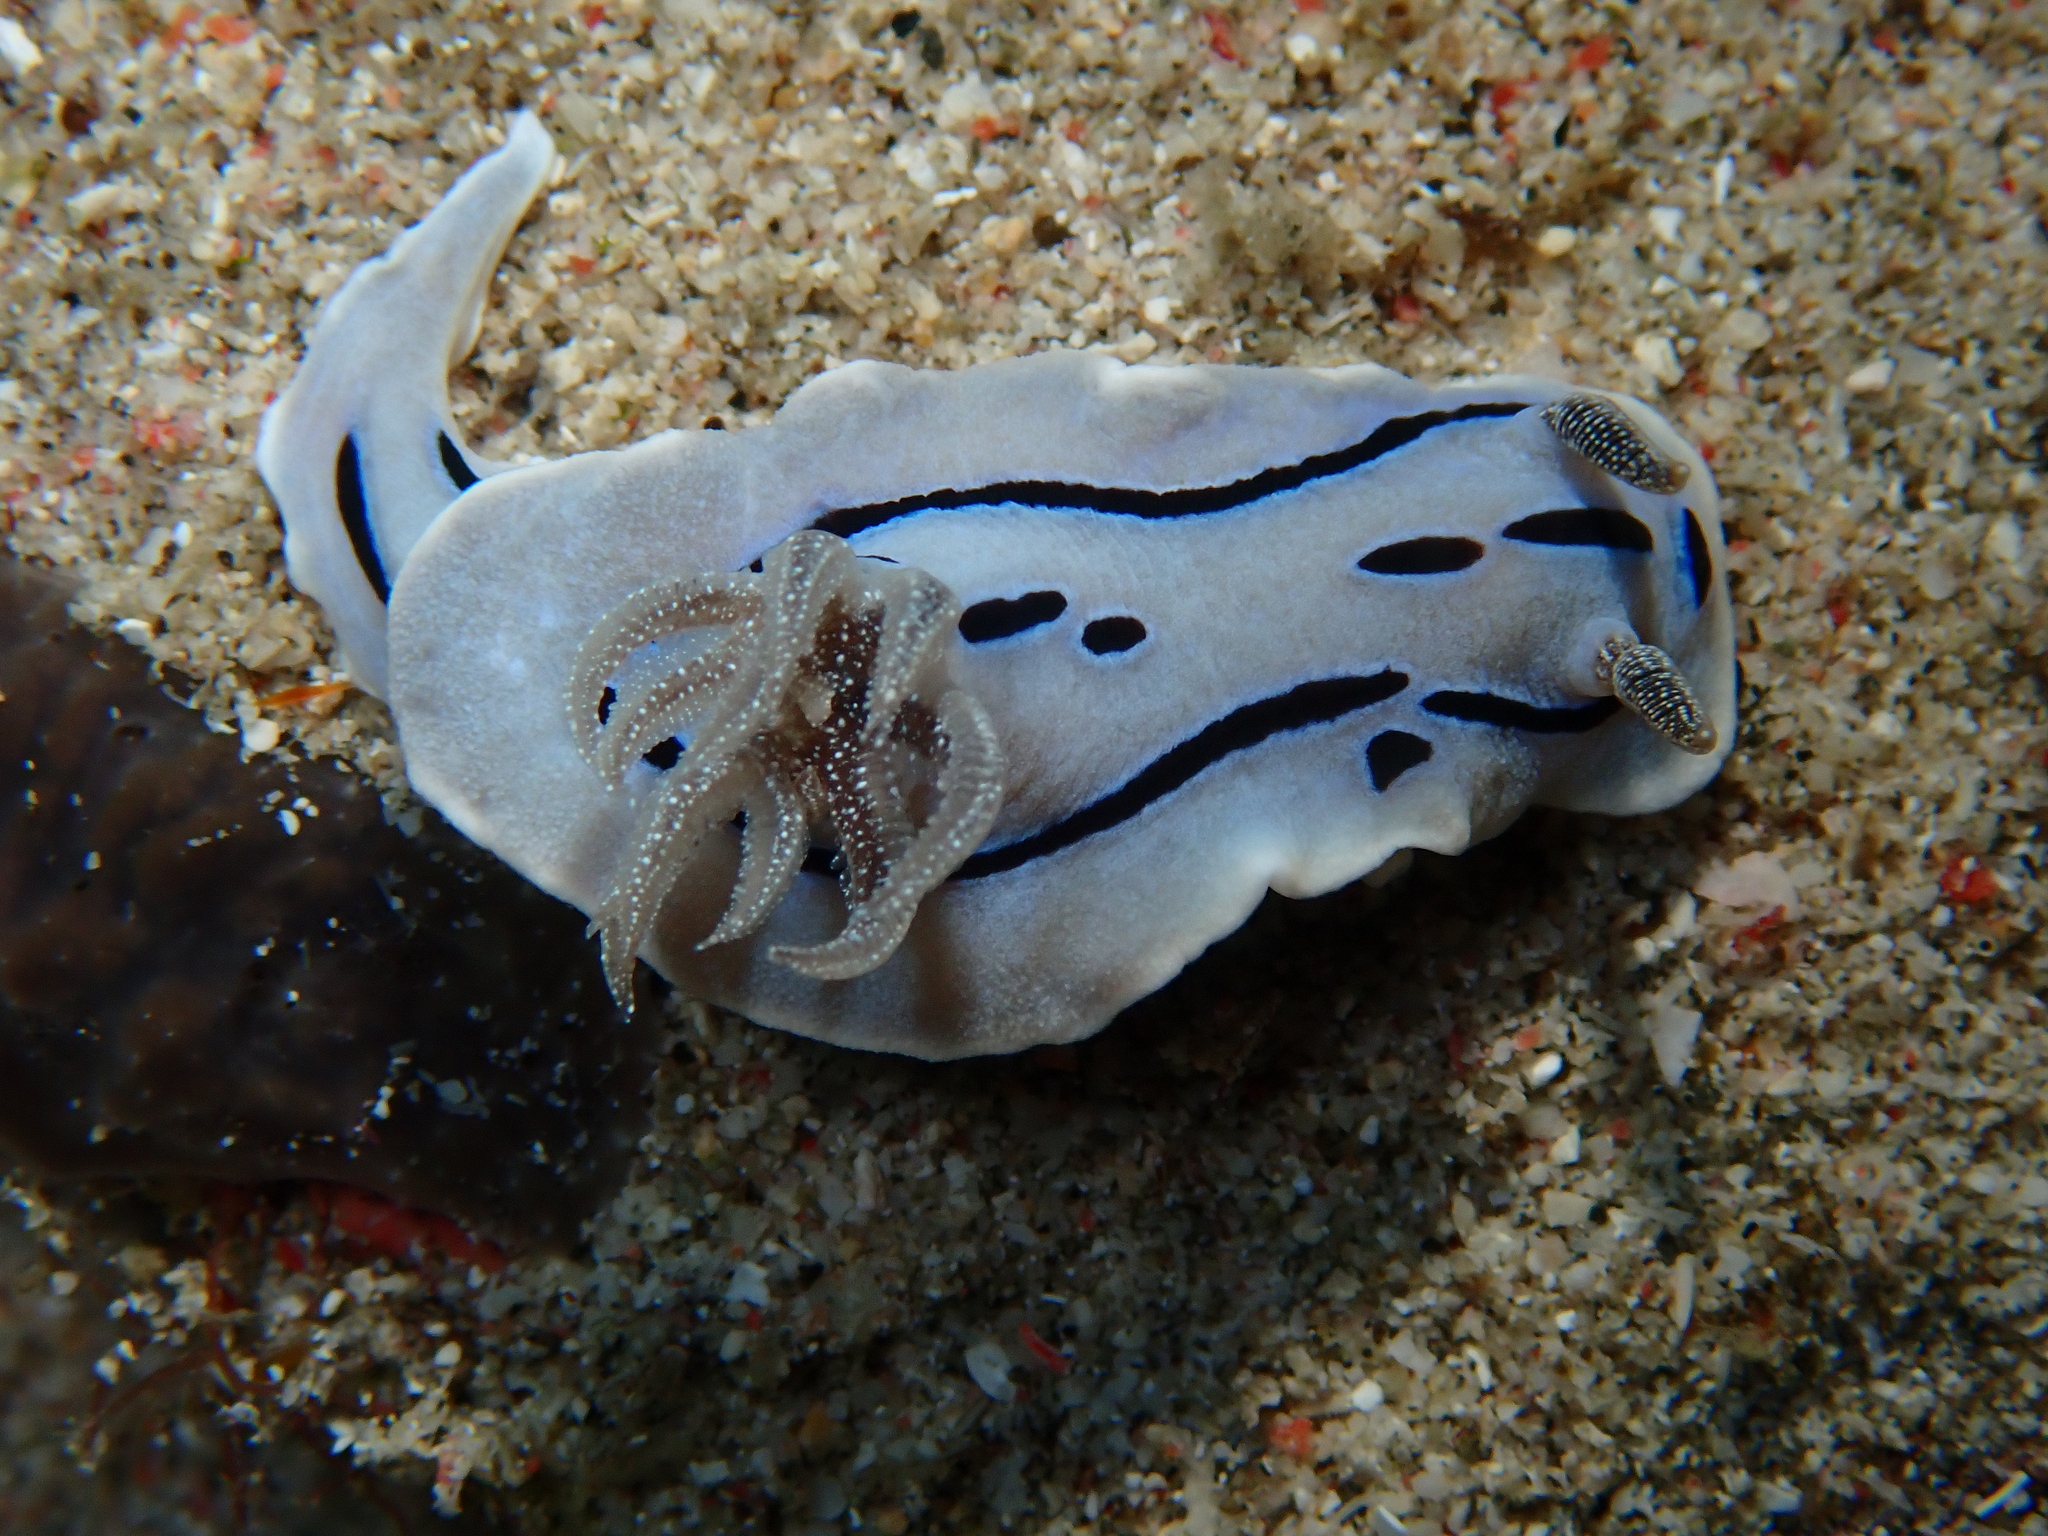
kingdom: Animalia
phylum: Mollusca
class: Gastropoda
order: Nudibranchia
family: Chromodorididae
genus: Chromodoris
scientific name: Chromodoris willani
